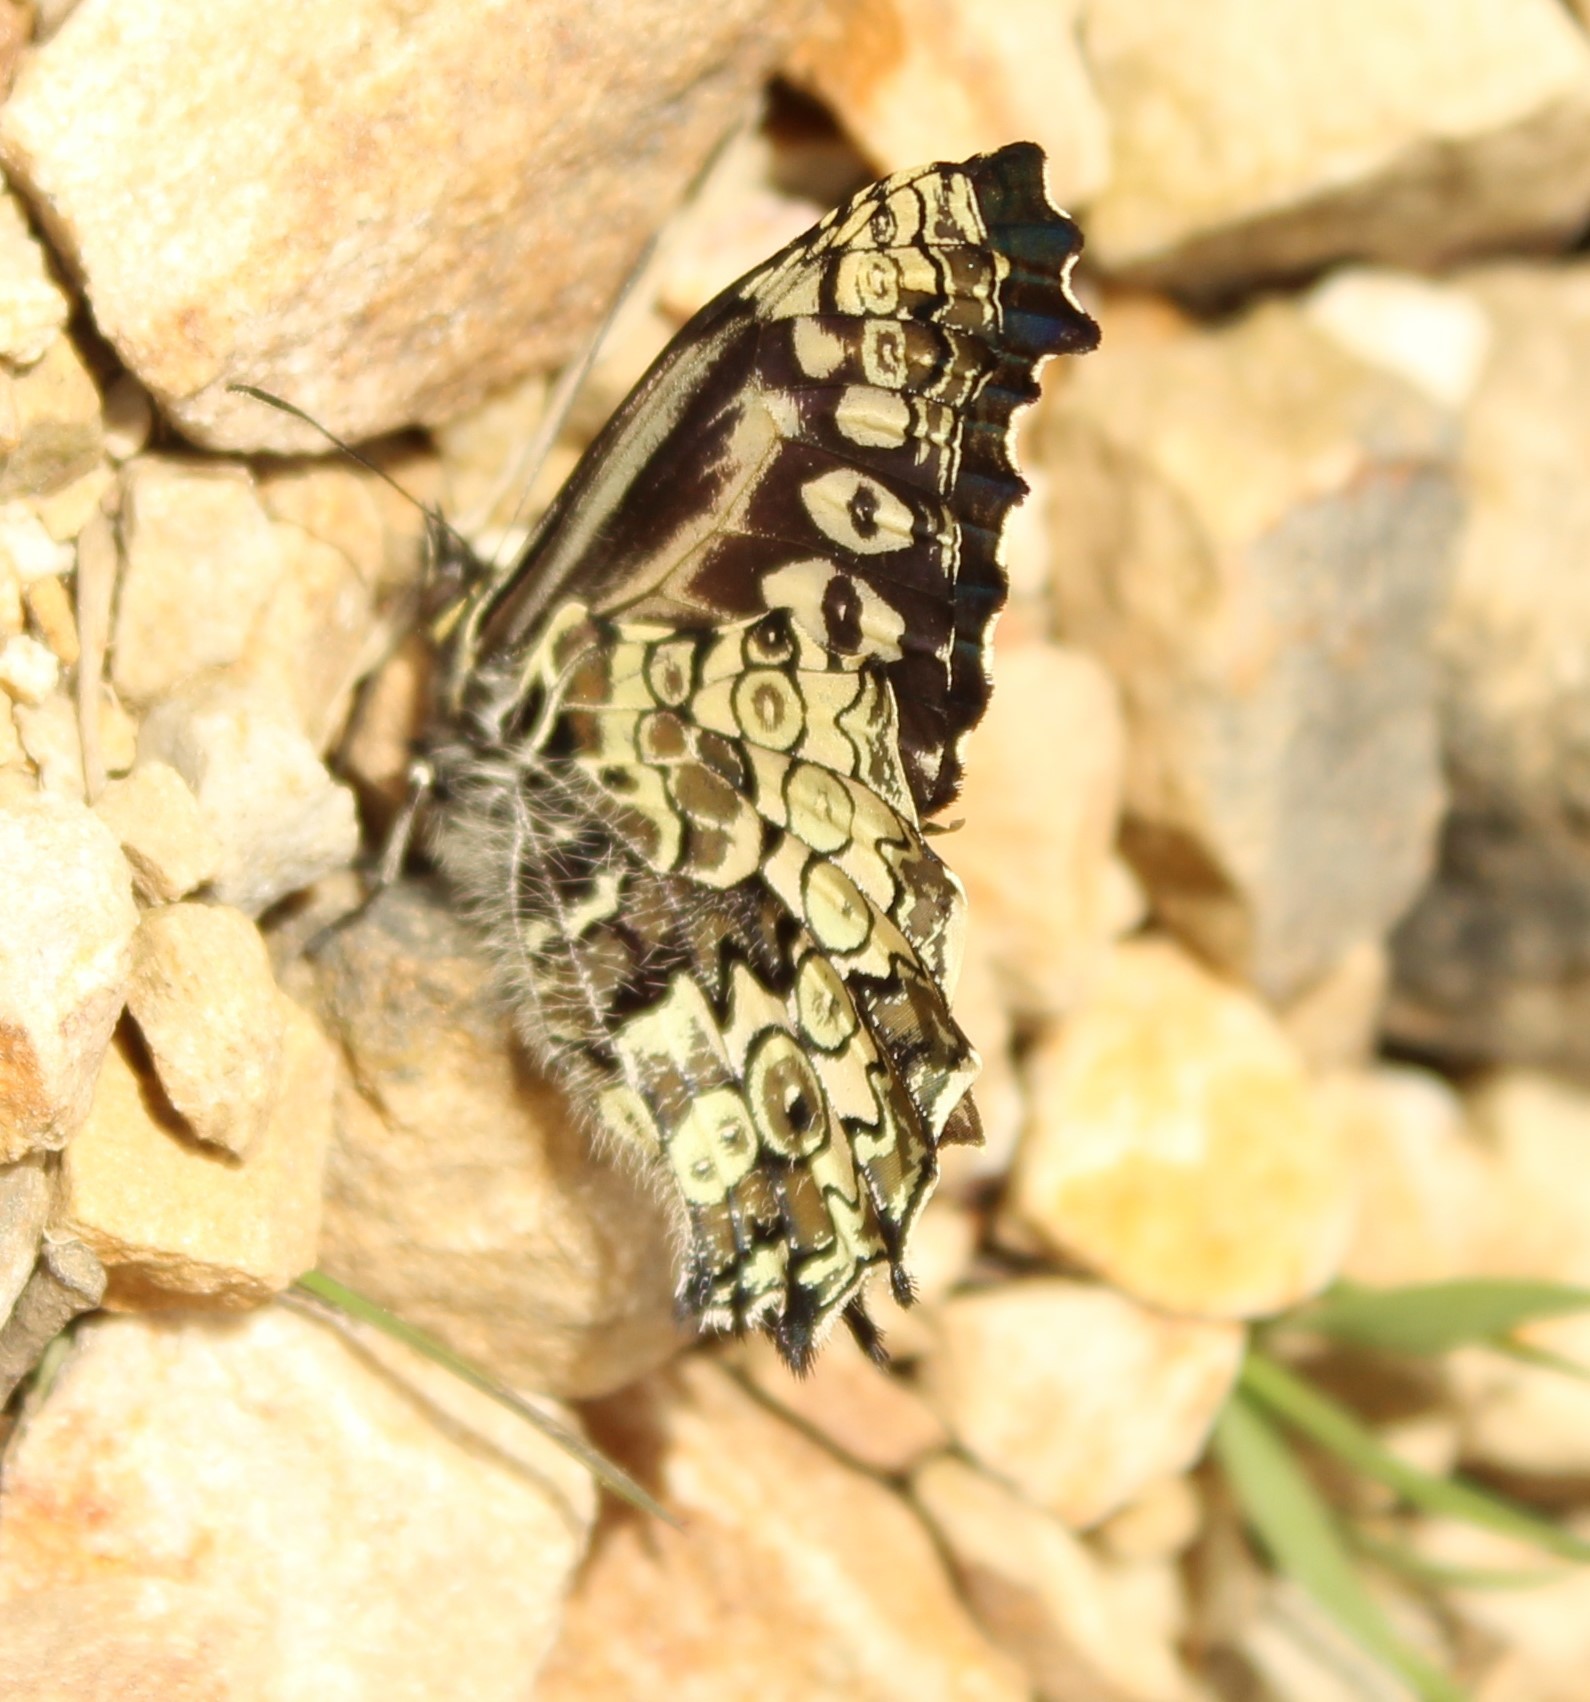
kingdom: Animalia
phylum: Arthropoda
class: Insecta
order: Lepidoptera
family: Nymphalidae
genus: Junea
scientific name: Junea doraete
